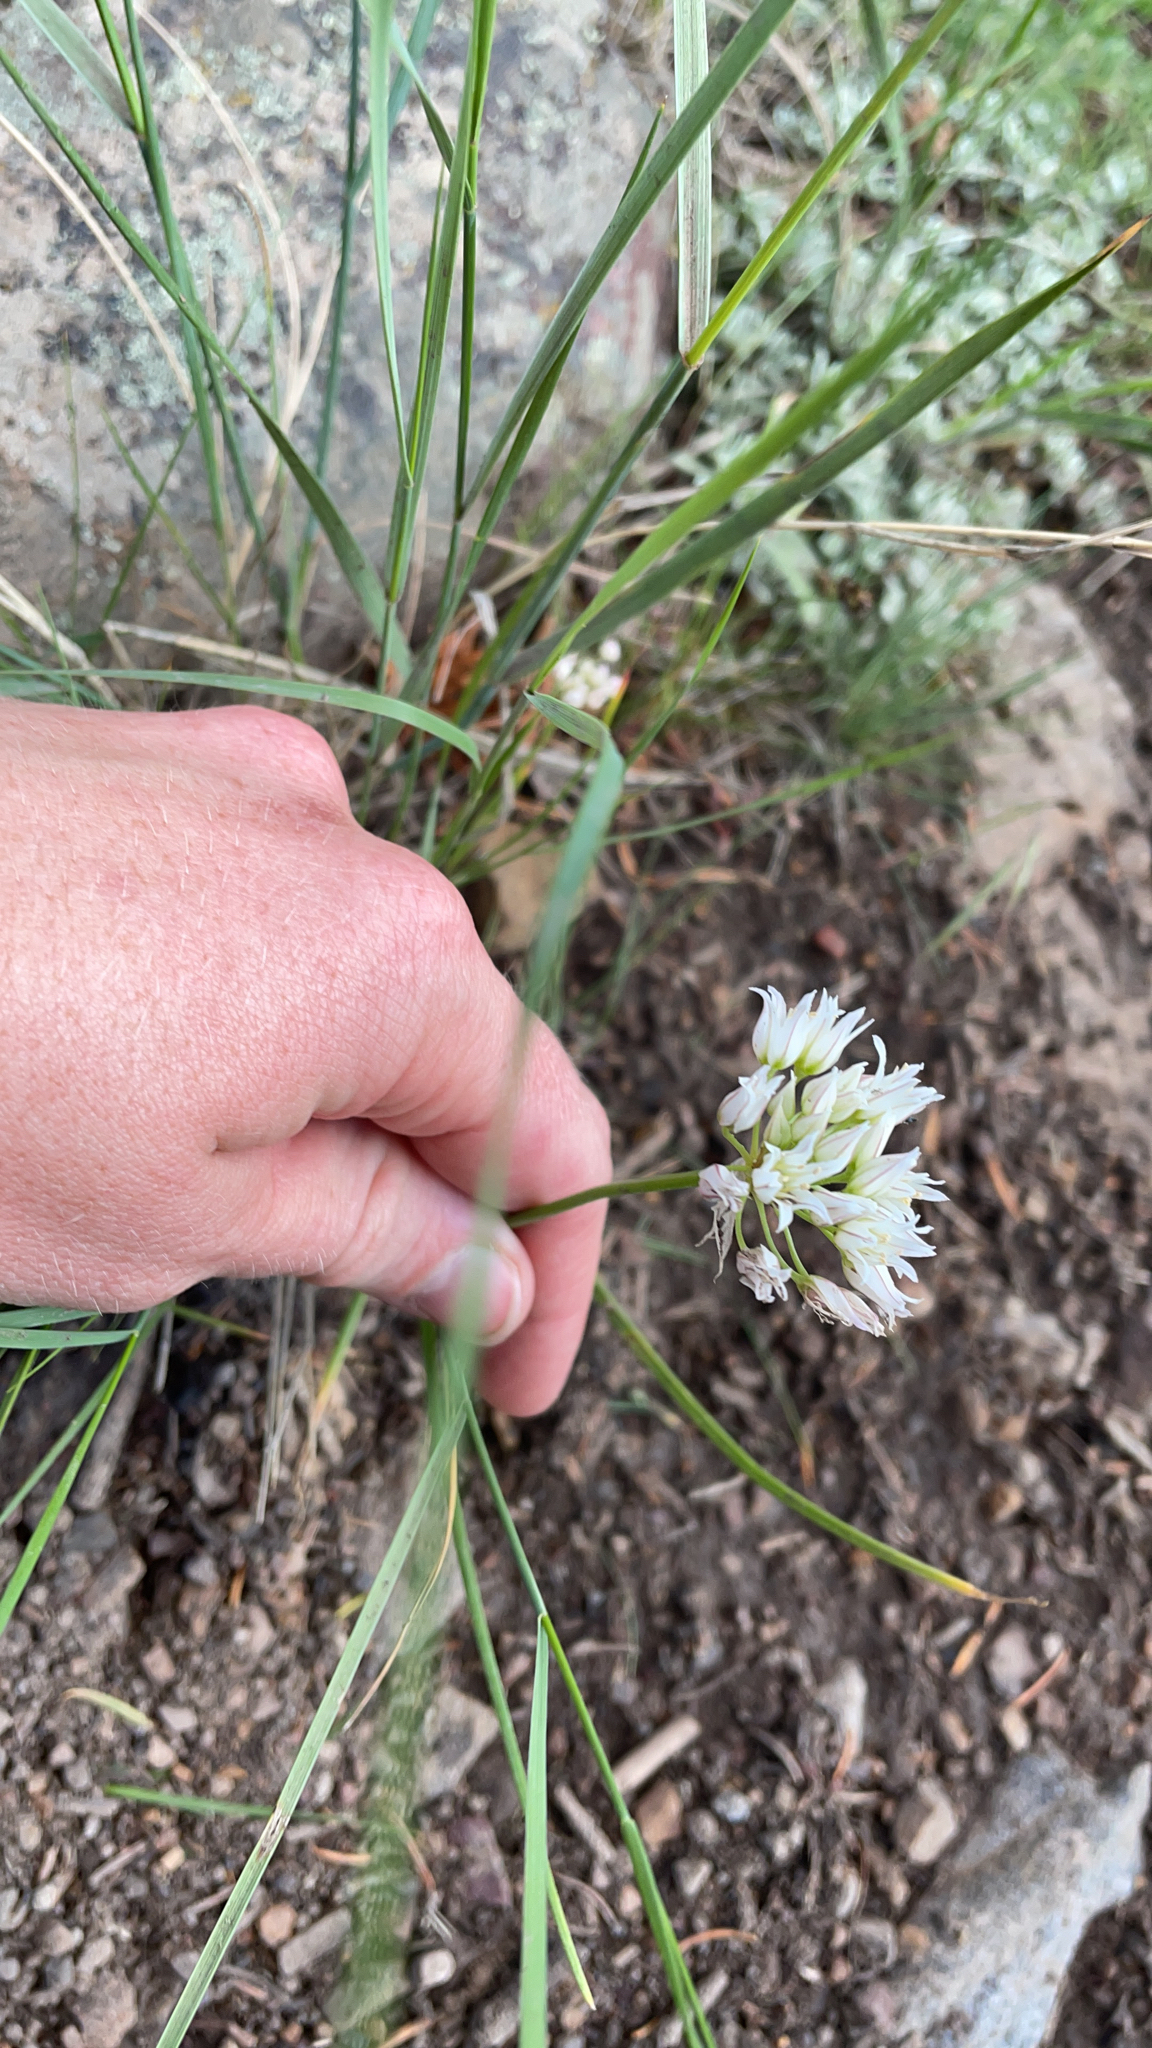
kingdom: Plantae
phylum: Tracheophyta
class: Liliopsida
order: Asparagales
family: Amaryllidaceae
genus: Allium
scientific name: Allium textile
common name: Prairie onion
